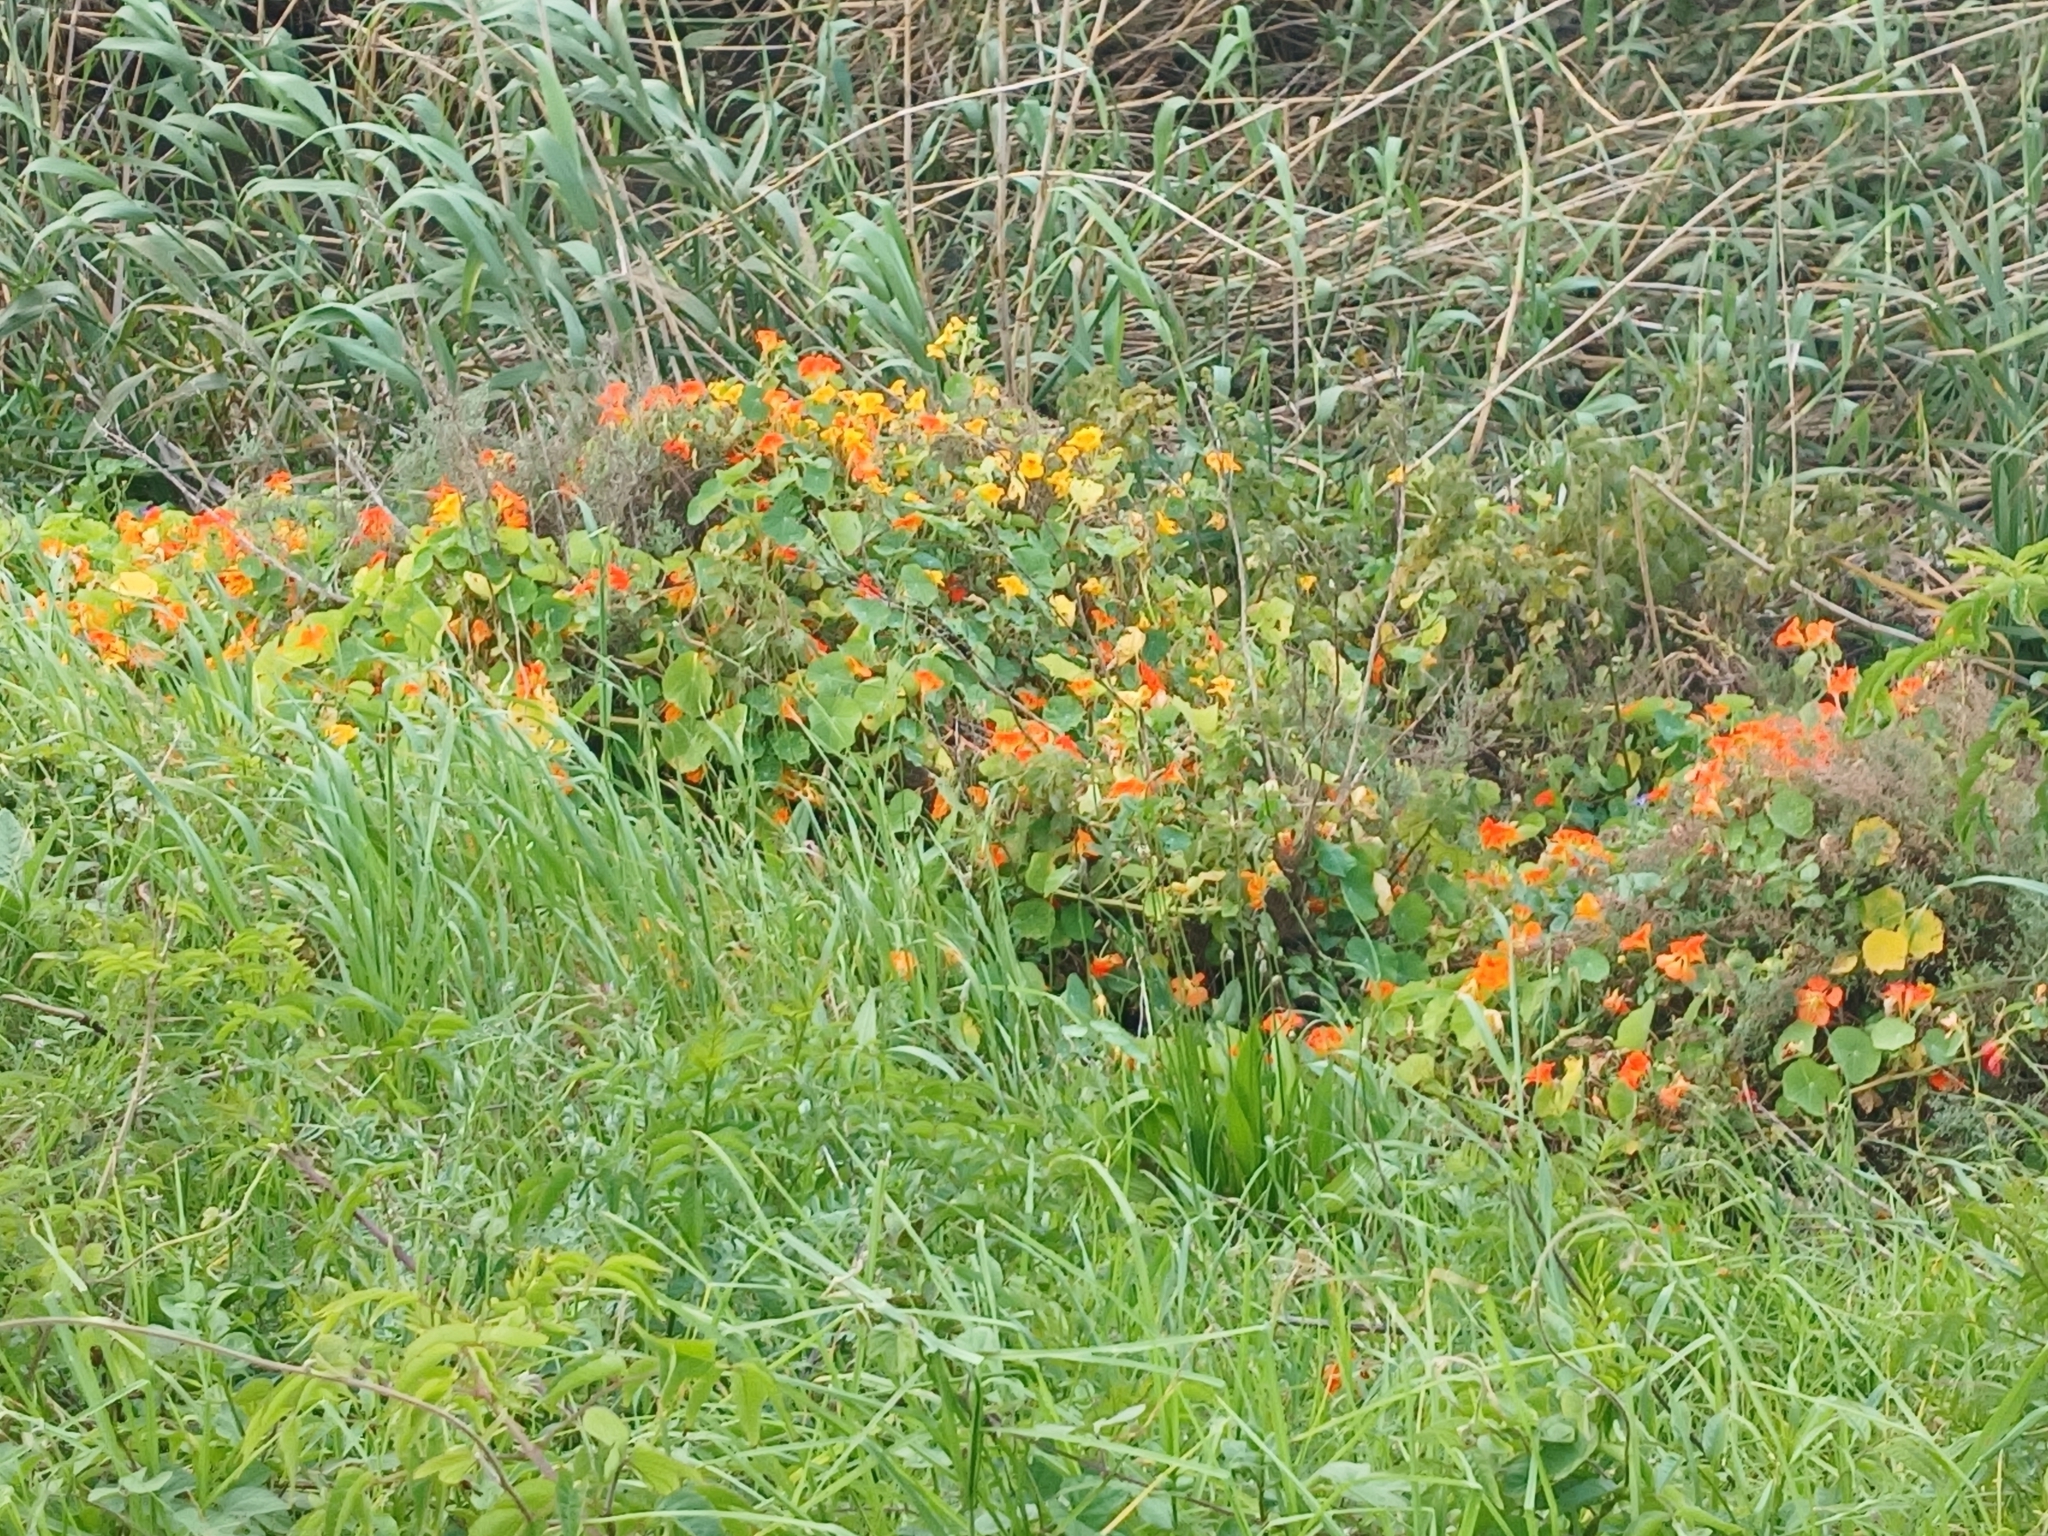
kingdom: Plantae
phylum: Tracheophyta
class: Magnoliopsida
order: Brassicales
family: Tropaeolaceae
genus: Tropaeolum
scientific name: Tropaeolum majus
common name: Nasturtium
